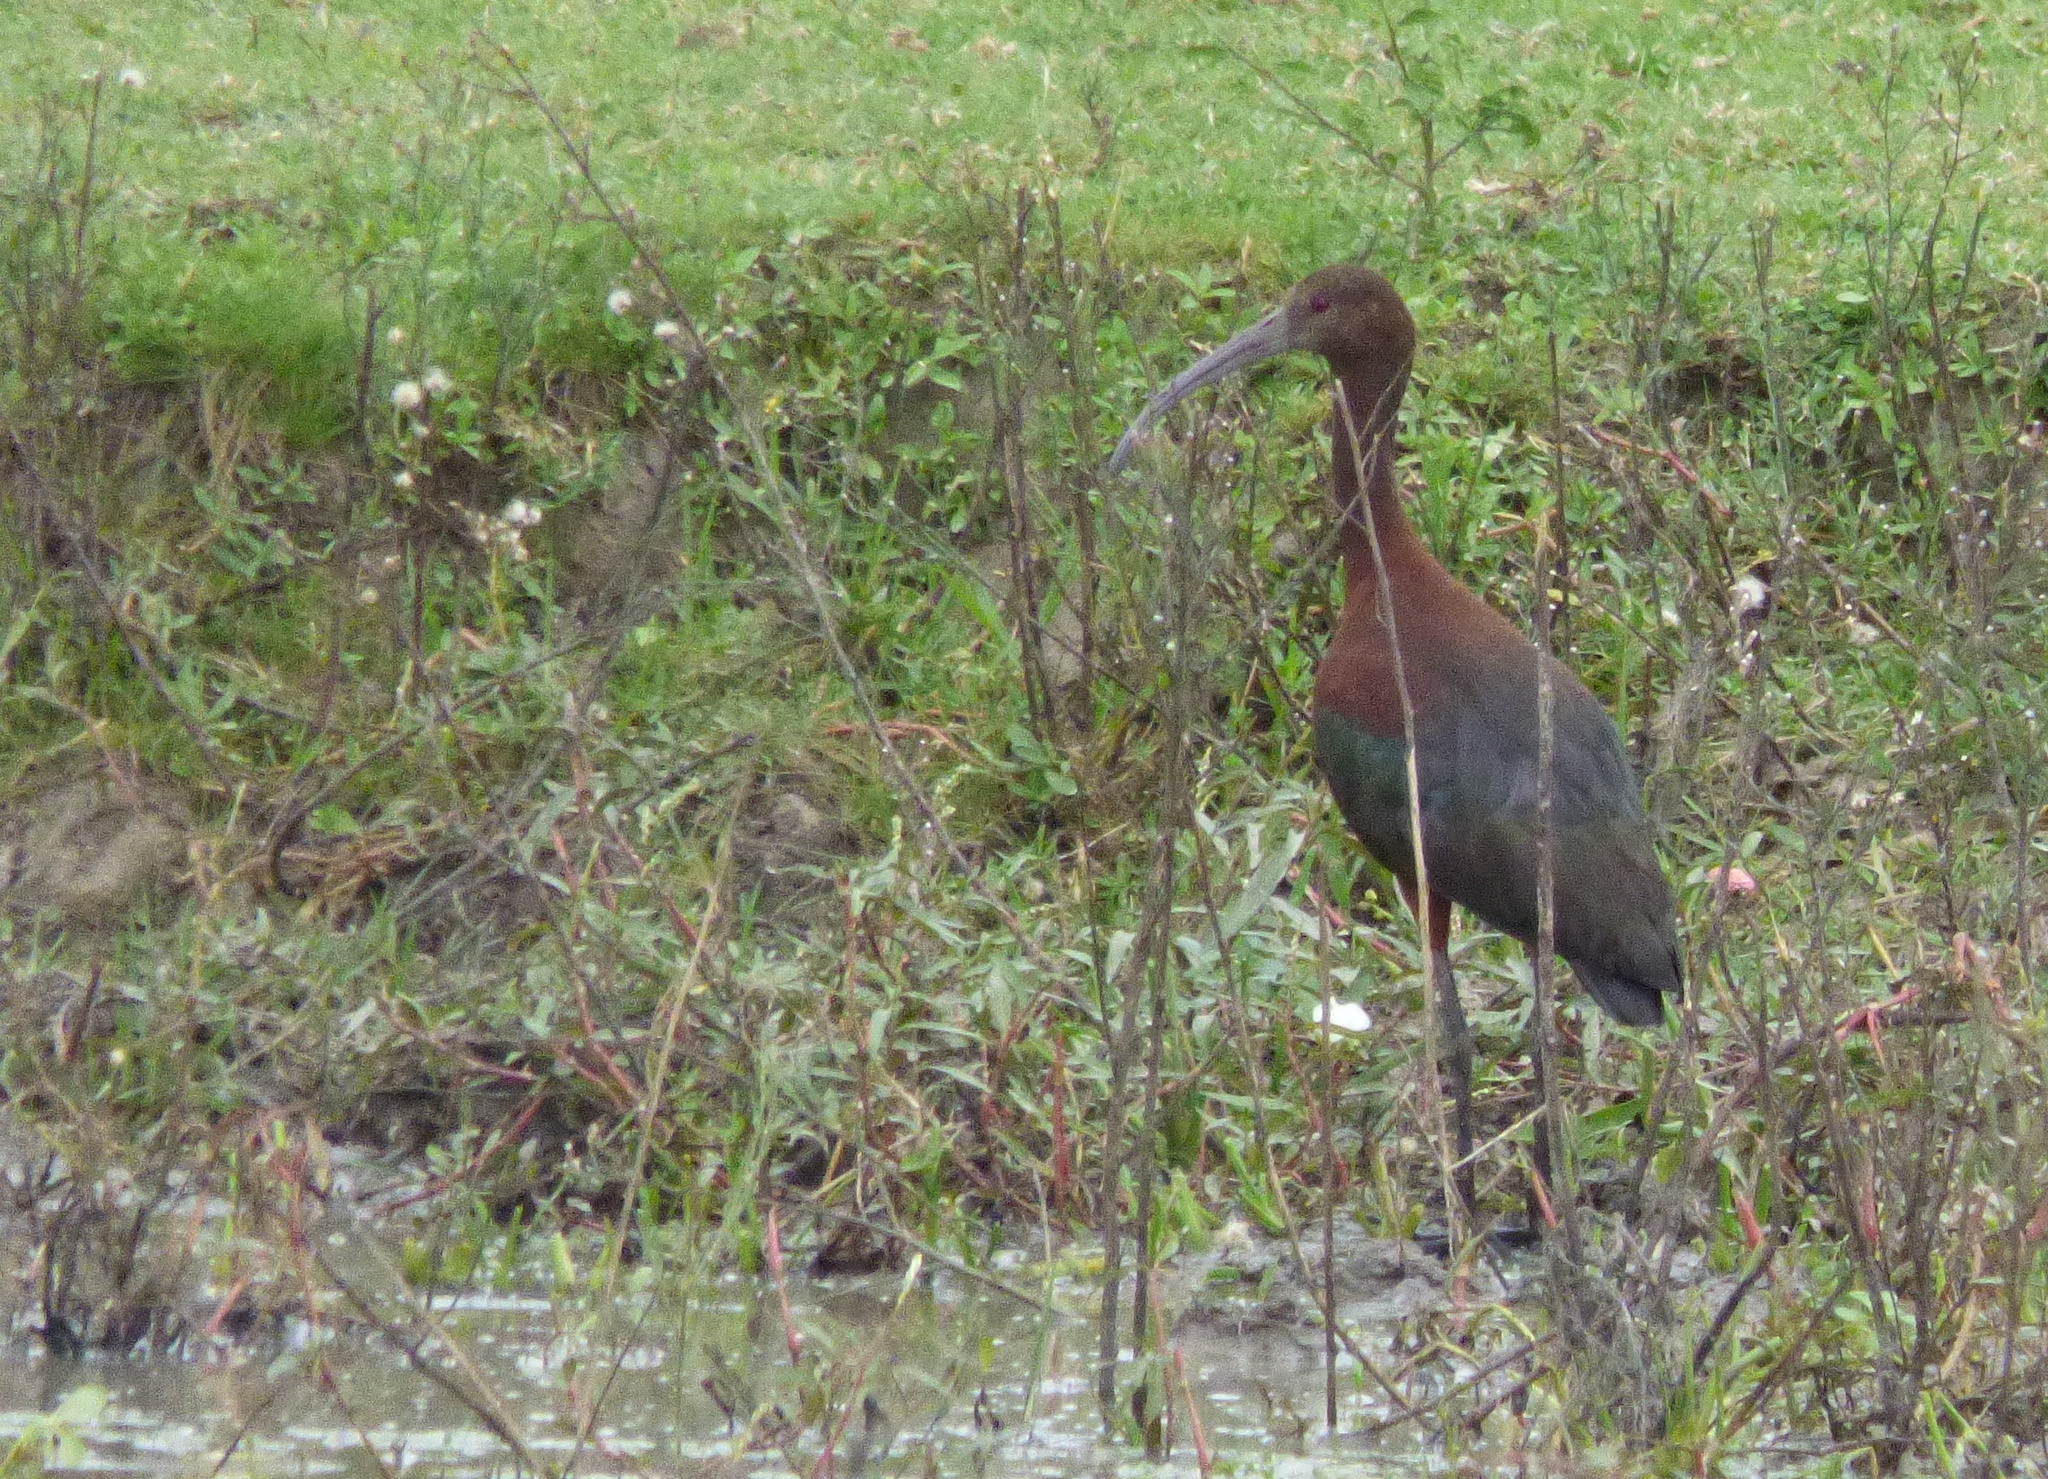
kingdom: Animalia
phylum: Chordata
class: Aves
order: Pelecaniformes
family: Threskiornithidae
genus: Plegadis
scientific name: Plegadis chihi
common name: White-faced ibis
